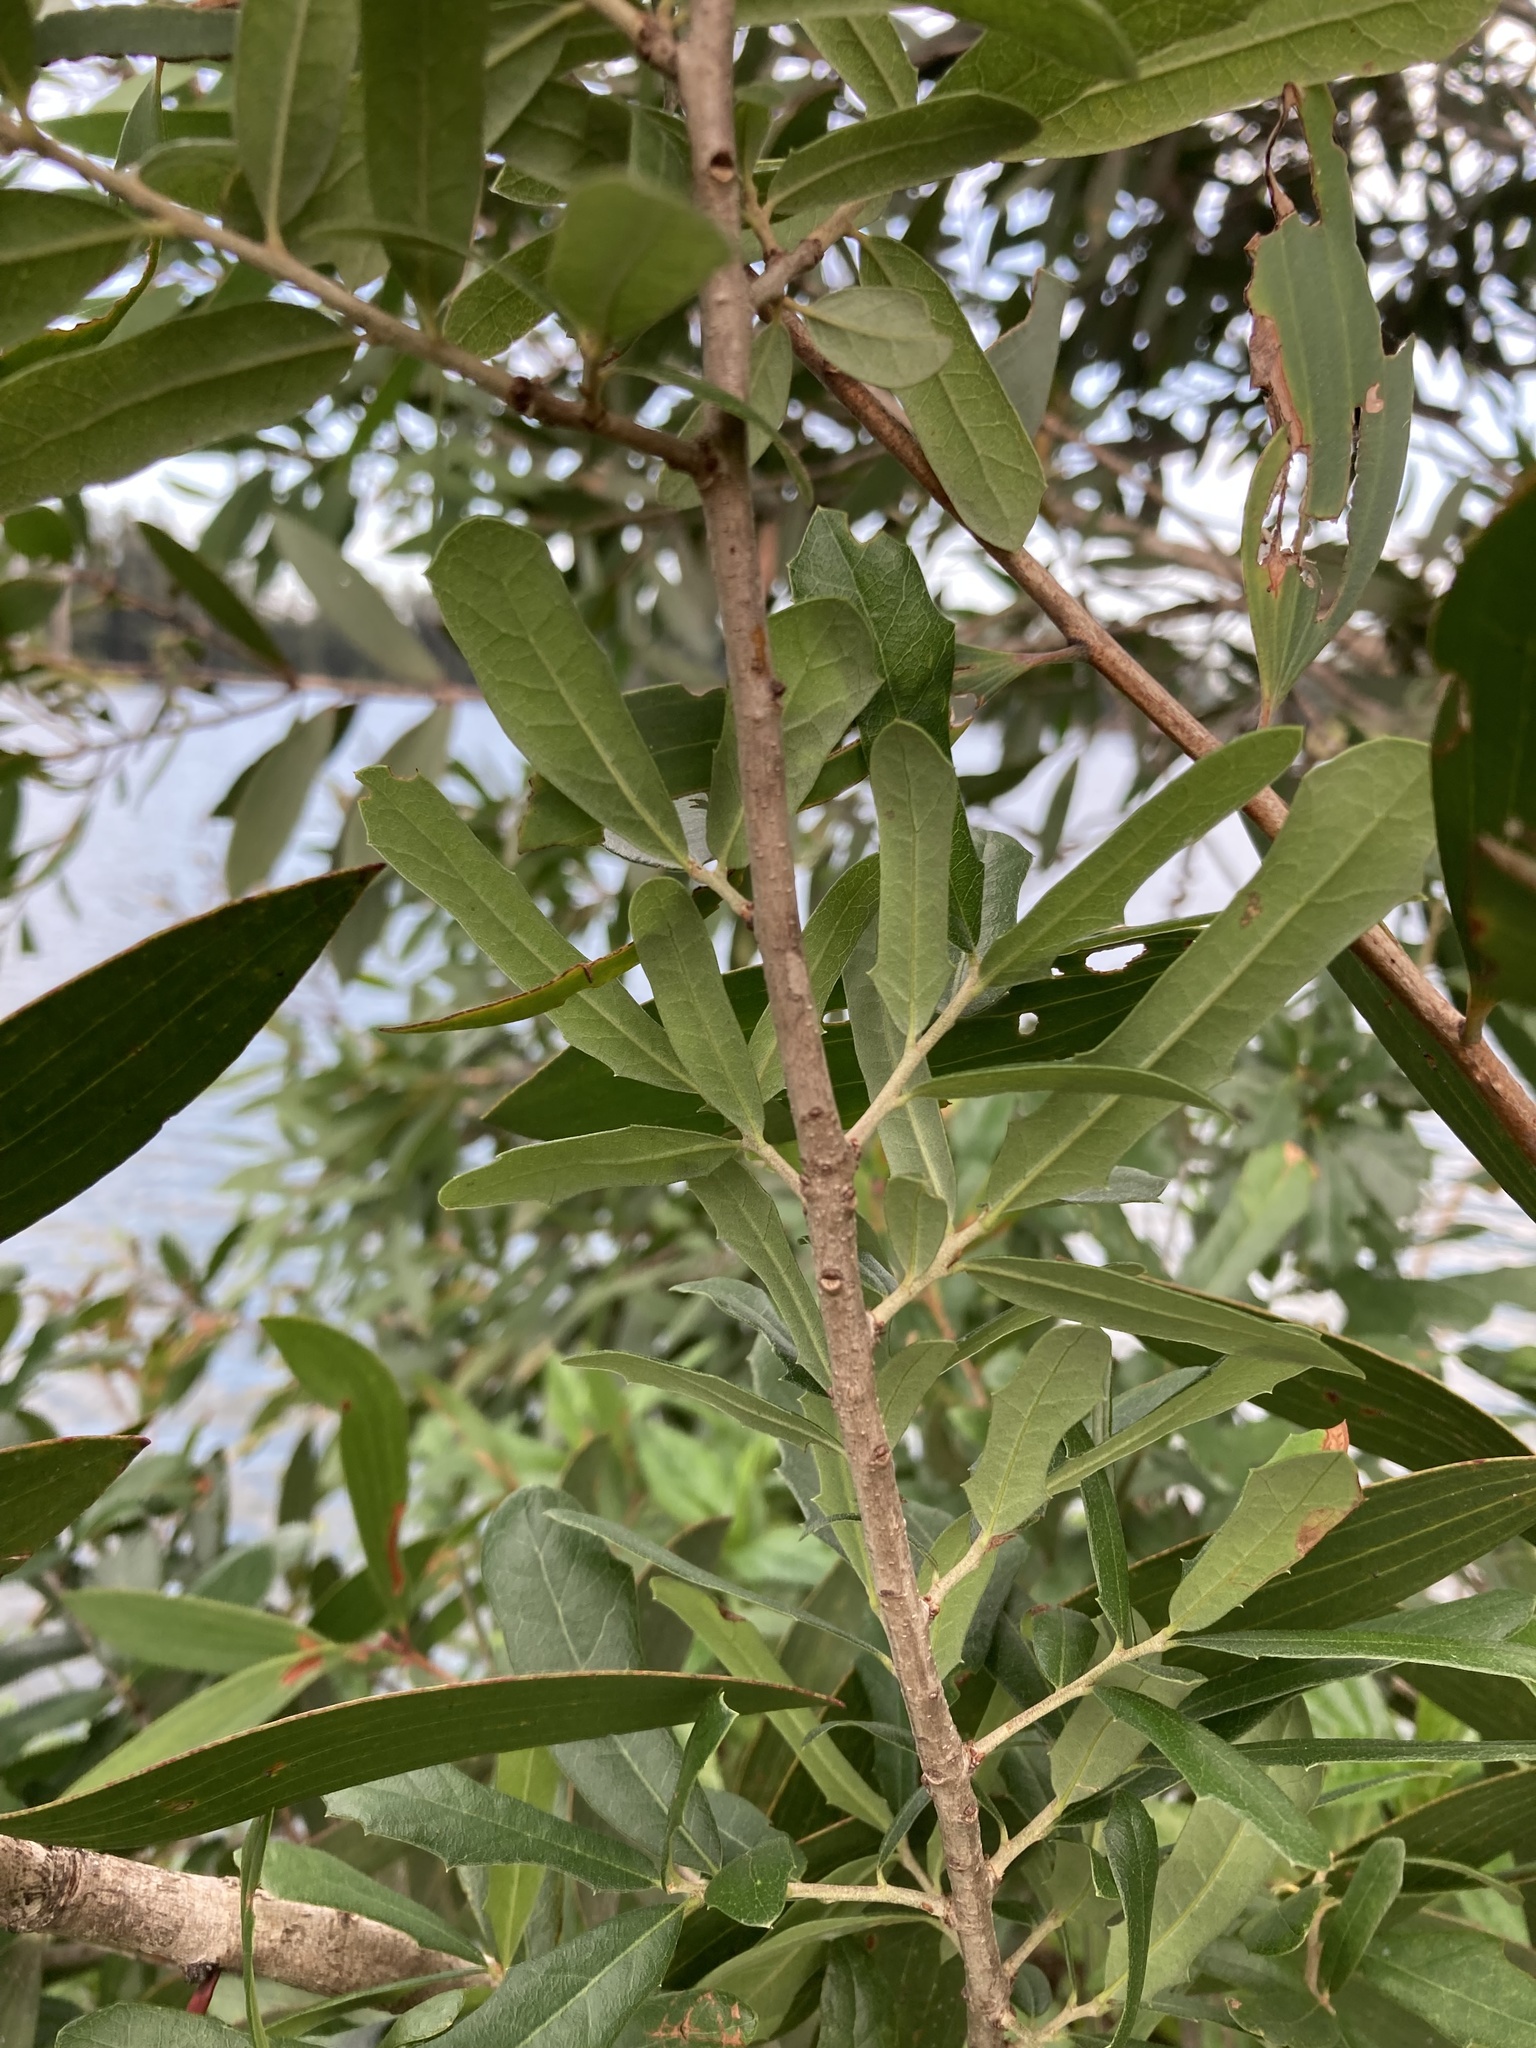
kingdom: Plantae
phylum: Tracheophyta
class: Magnoliopsida
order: Fagales
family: Fagaceae
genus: Quercus
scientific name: Quercus virginiana
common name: Southern live oak
